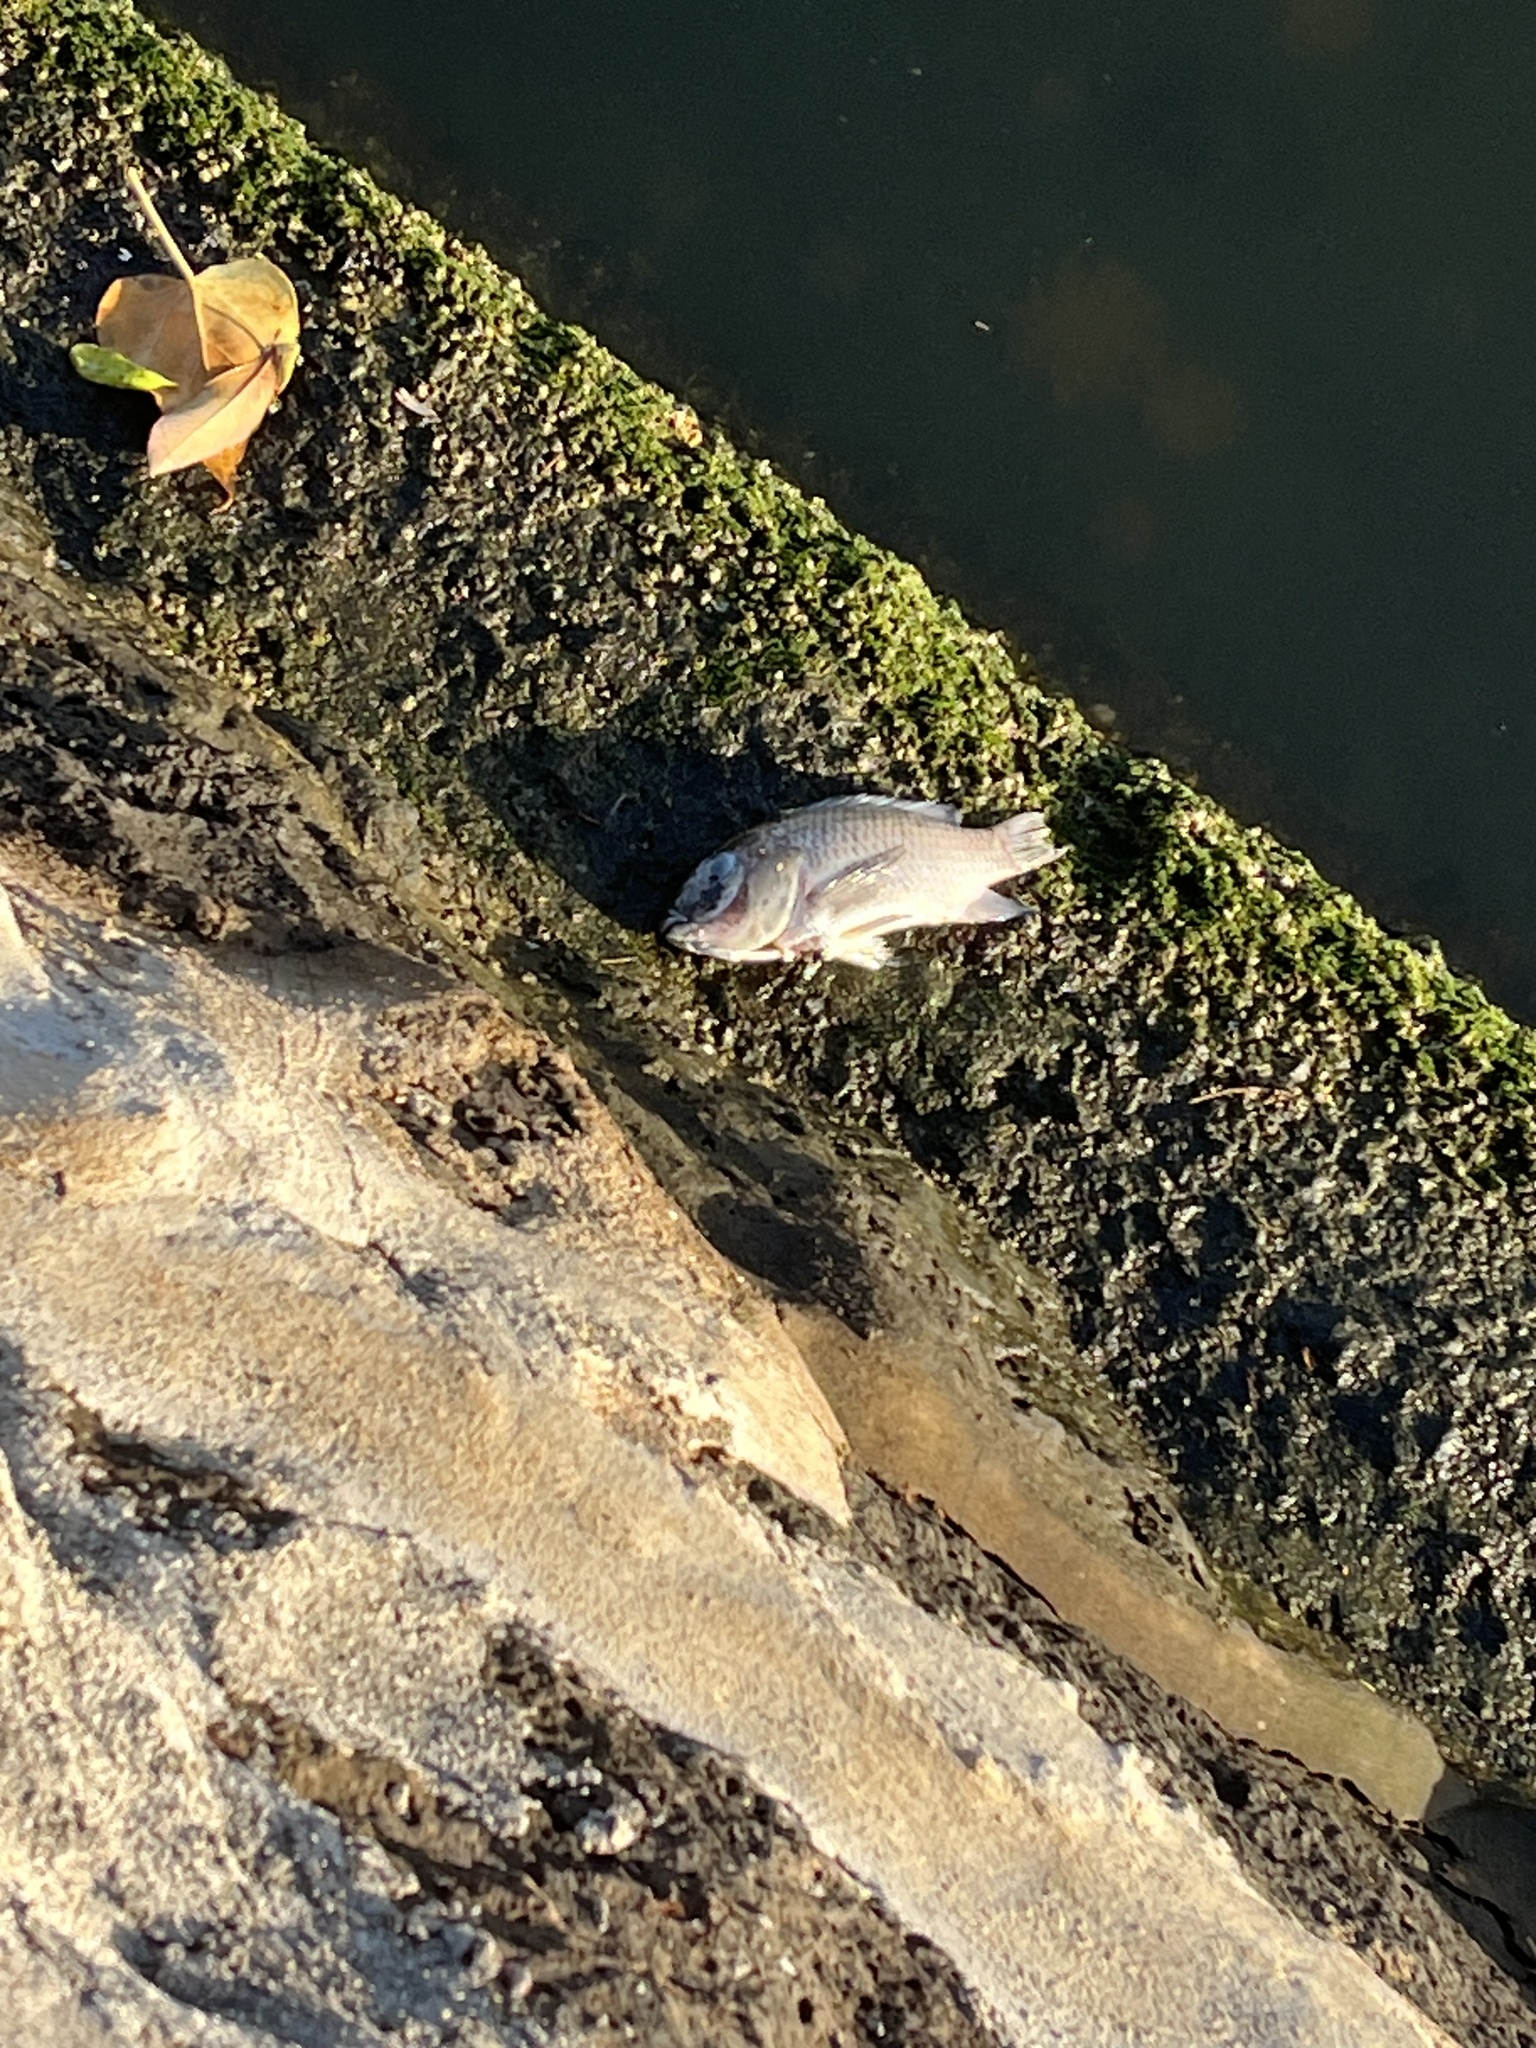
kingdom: Animalia
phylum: Chordata
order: Perciformes
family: Cichlidae
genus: Sarotherodon
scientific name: Sarotherodon melanotheron
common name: Blackchin tilapia
